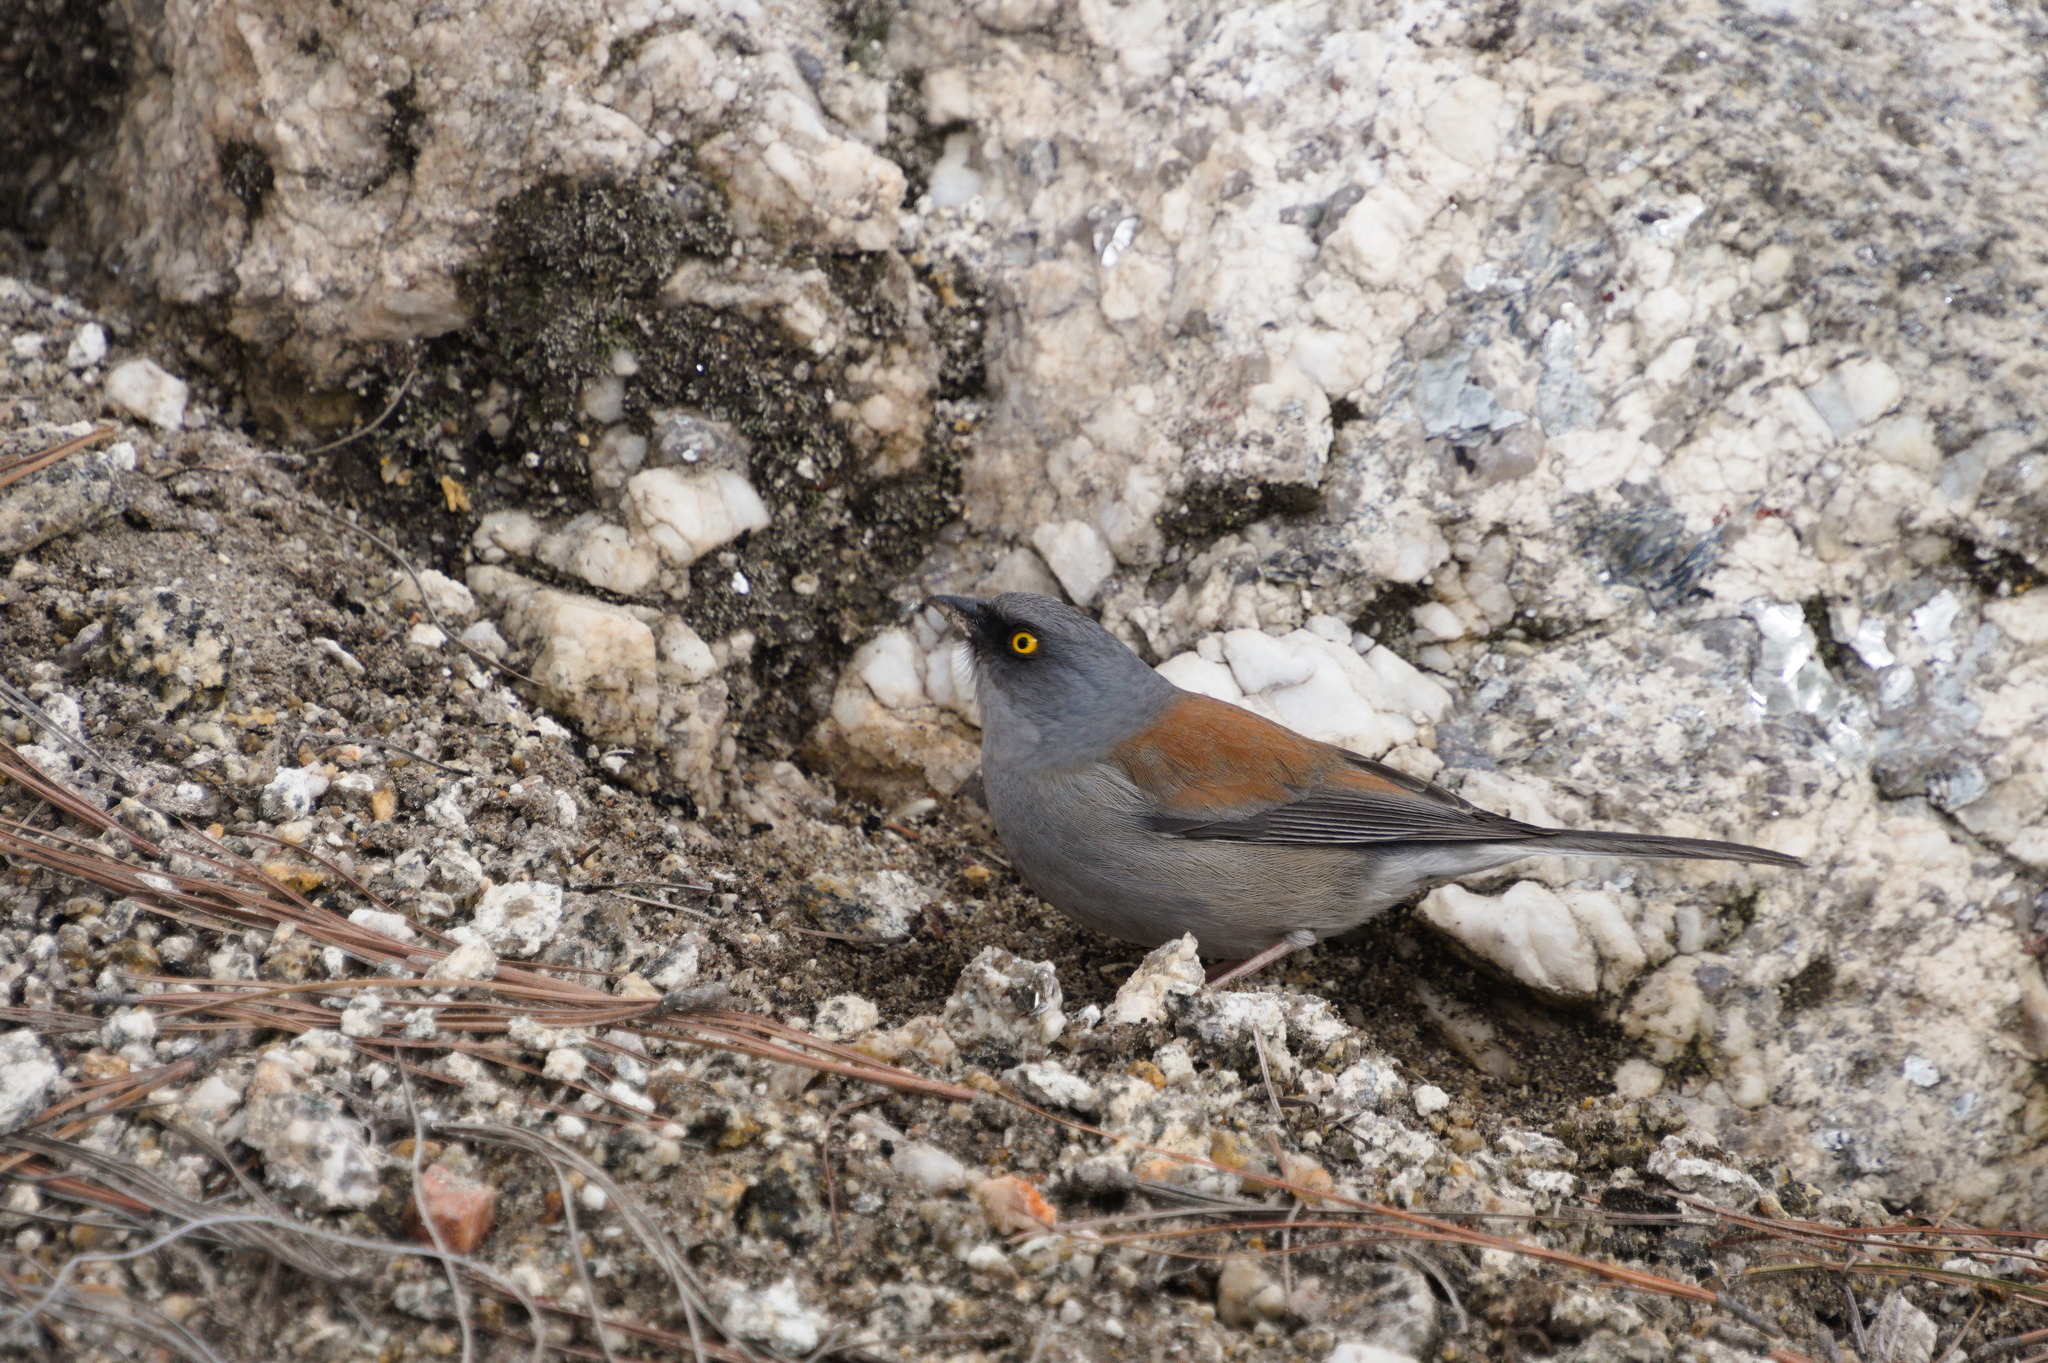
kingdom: Animalia
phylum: Chordata
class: Aves
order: Passeriformes
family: Passerellidae
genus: Junco
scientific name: Junco phaeonotus
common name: Yellow-eyed junco
